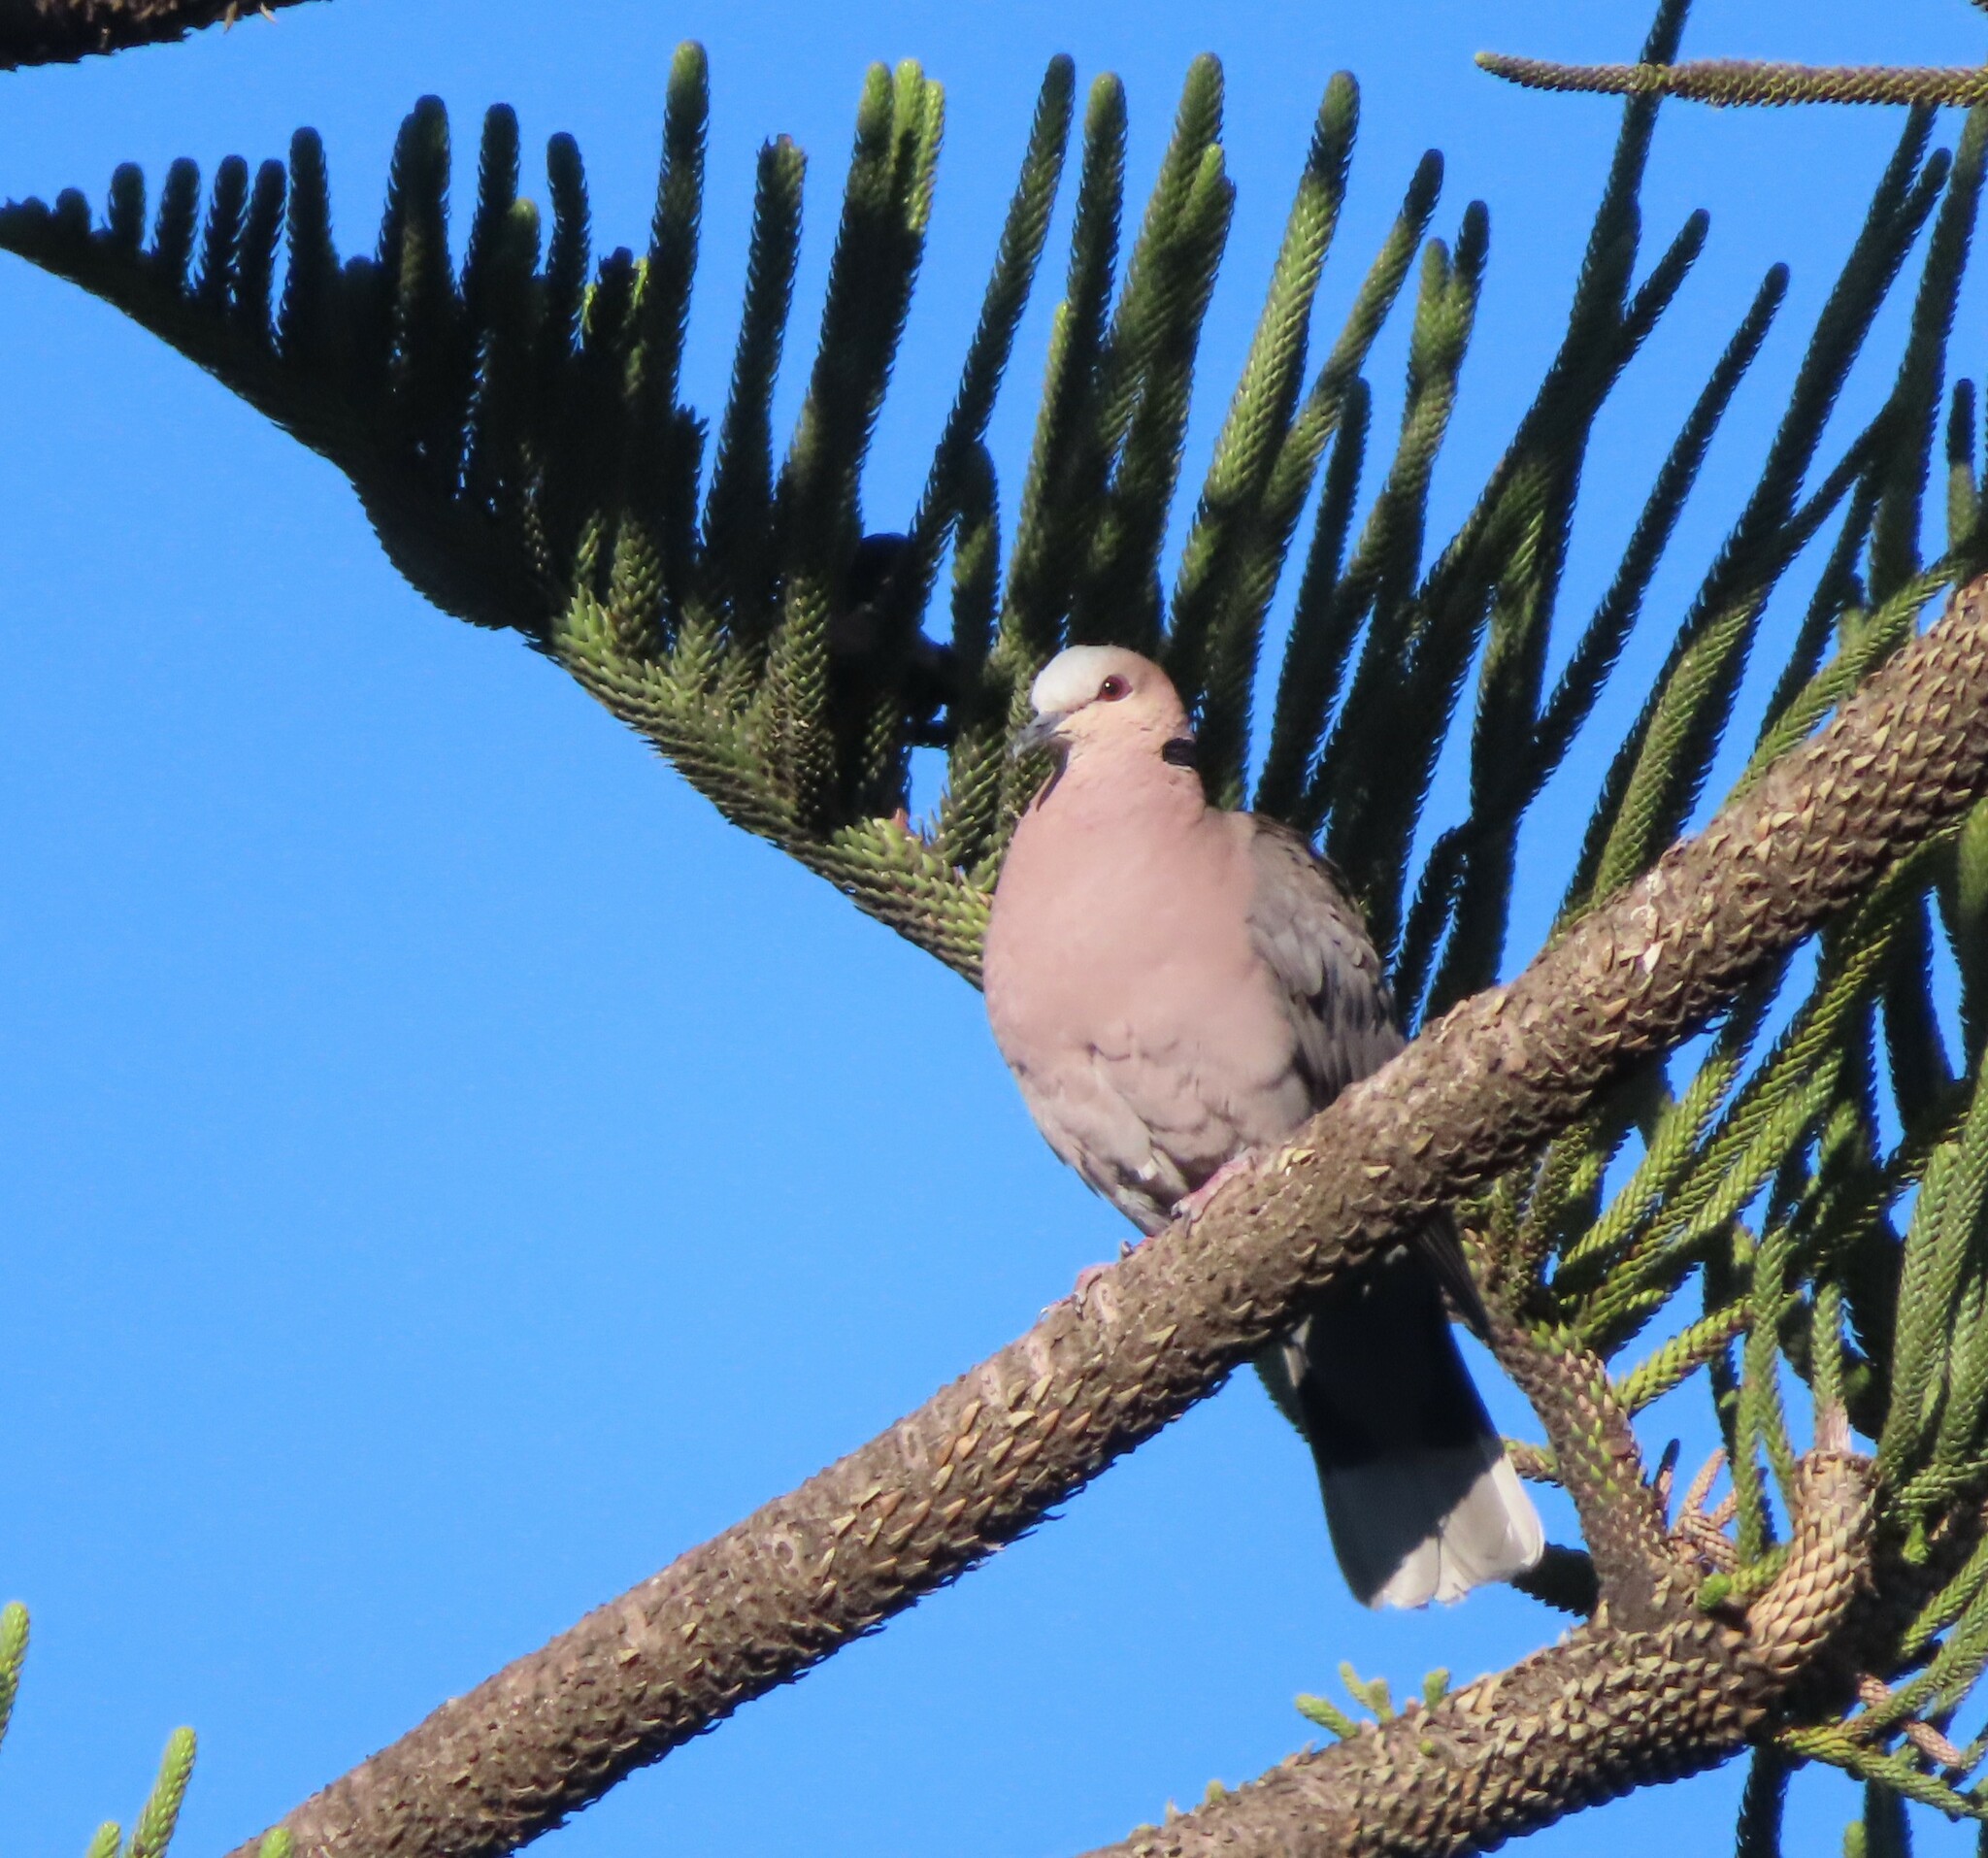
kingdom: Animalia
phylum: Chordata
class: Aves
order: Columbiformes
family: Columbidae
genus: Streptopelia
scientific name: Streptopelia semitorquata
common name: Red-eyed dove
